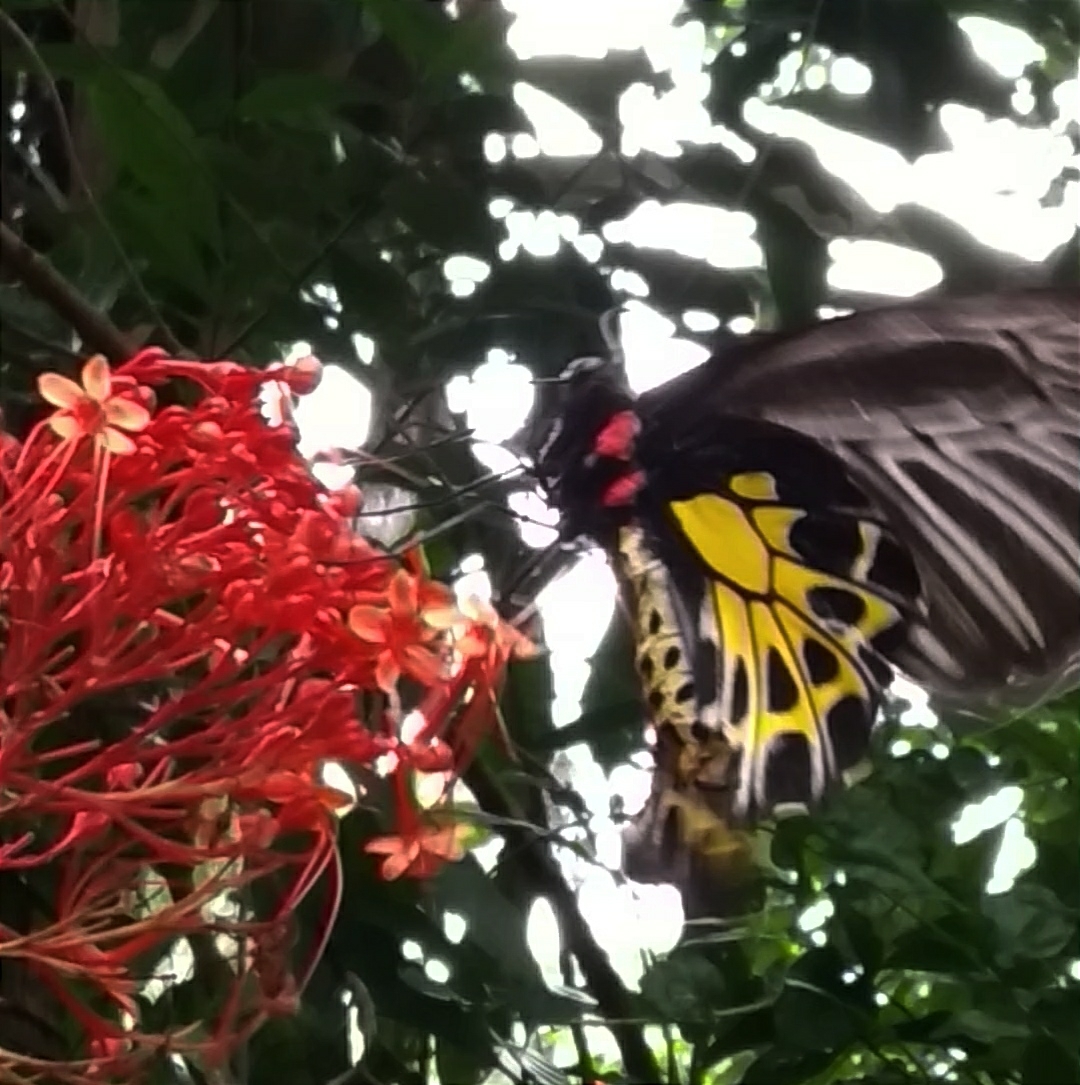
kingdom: Animalia
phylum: Arthropoda
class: Insecta
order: Lepidoptera
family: Papilionidae
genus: Troides
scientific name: Troides minos
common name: Malabar birdwing
